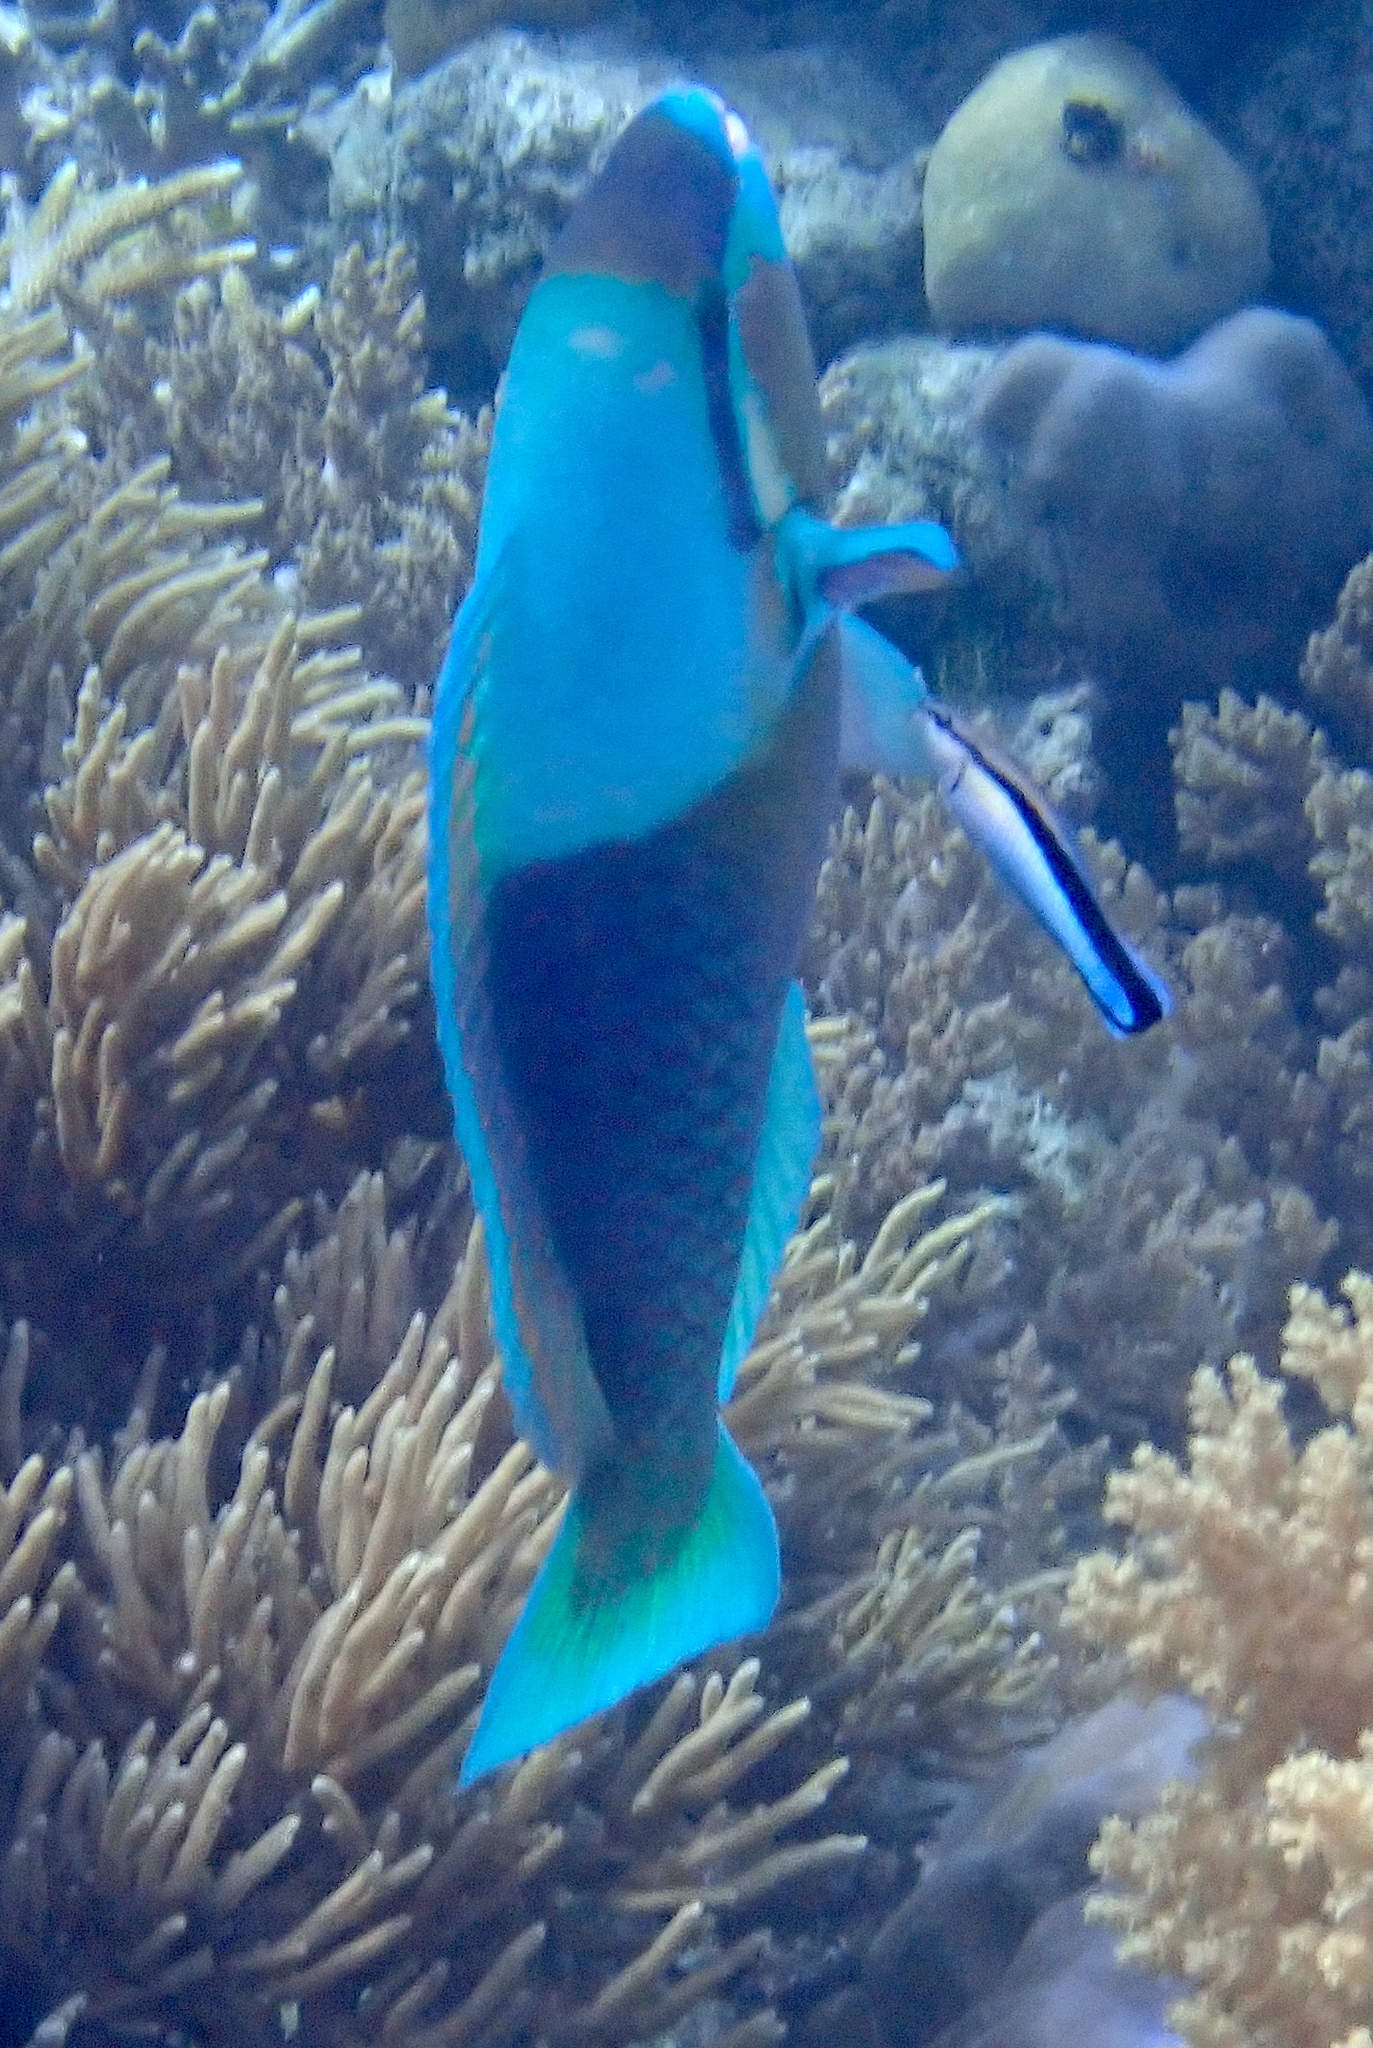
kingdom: Animalia
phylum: Chordata
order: Perciformes
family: Scaridae
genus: Scarus
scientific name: Scarus dimidiatus
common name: Yellowbarred parrotfish
